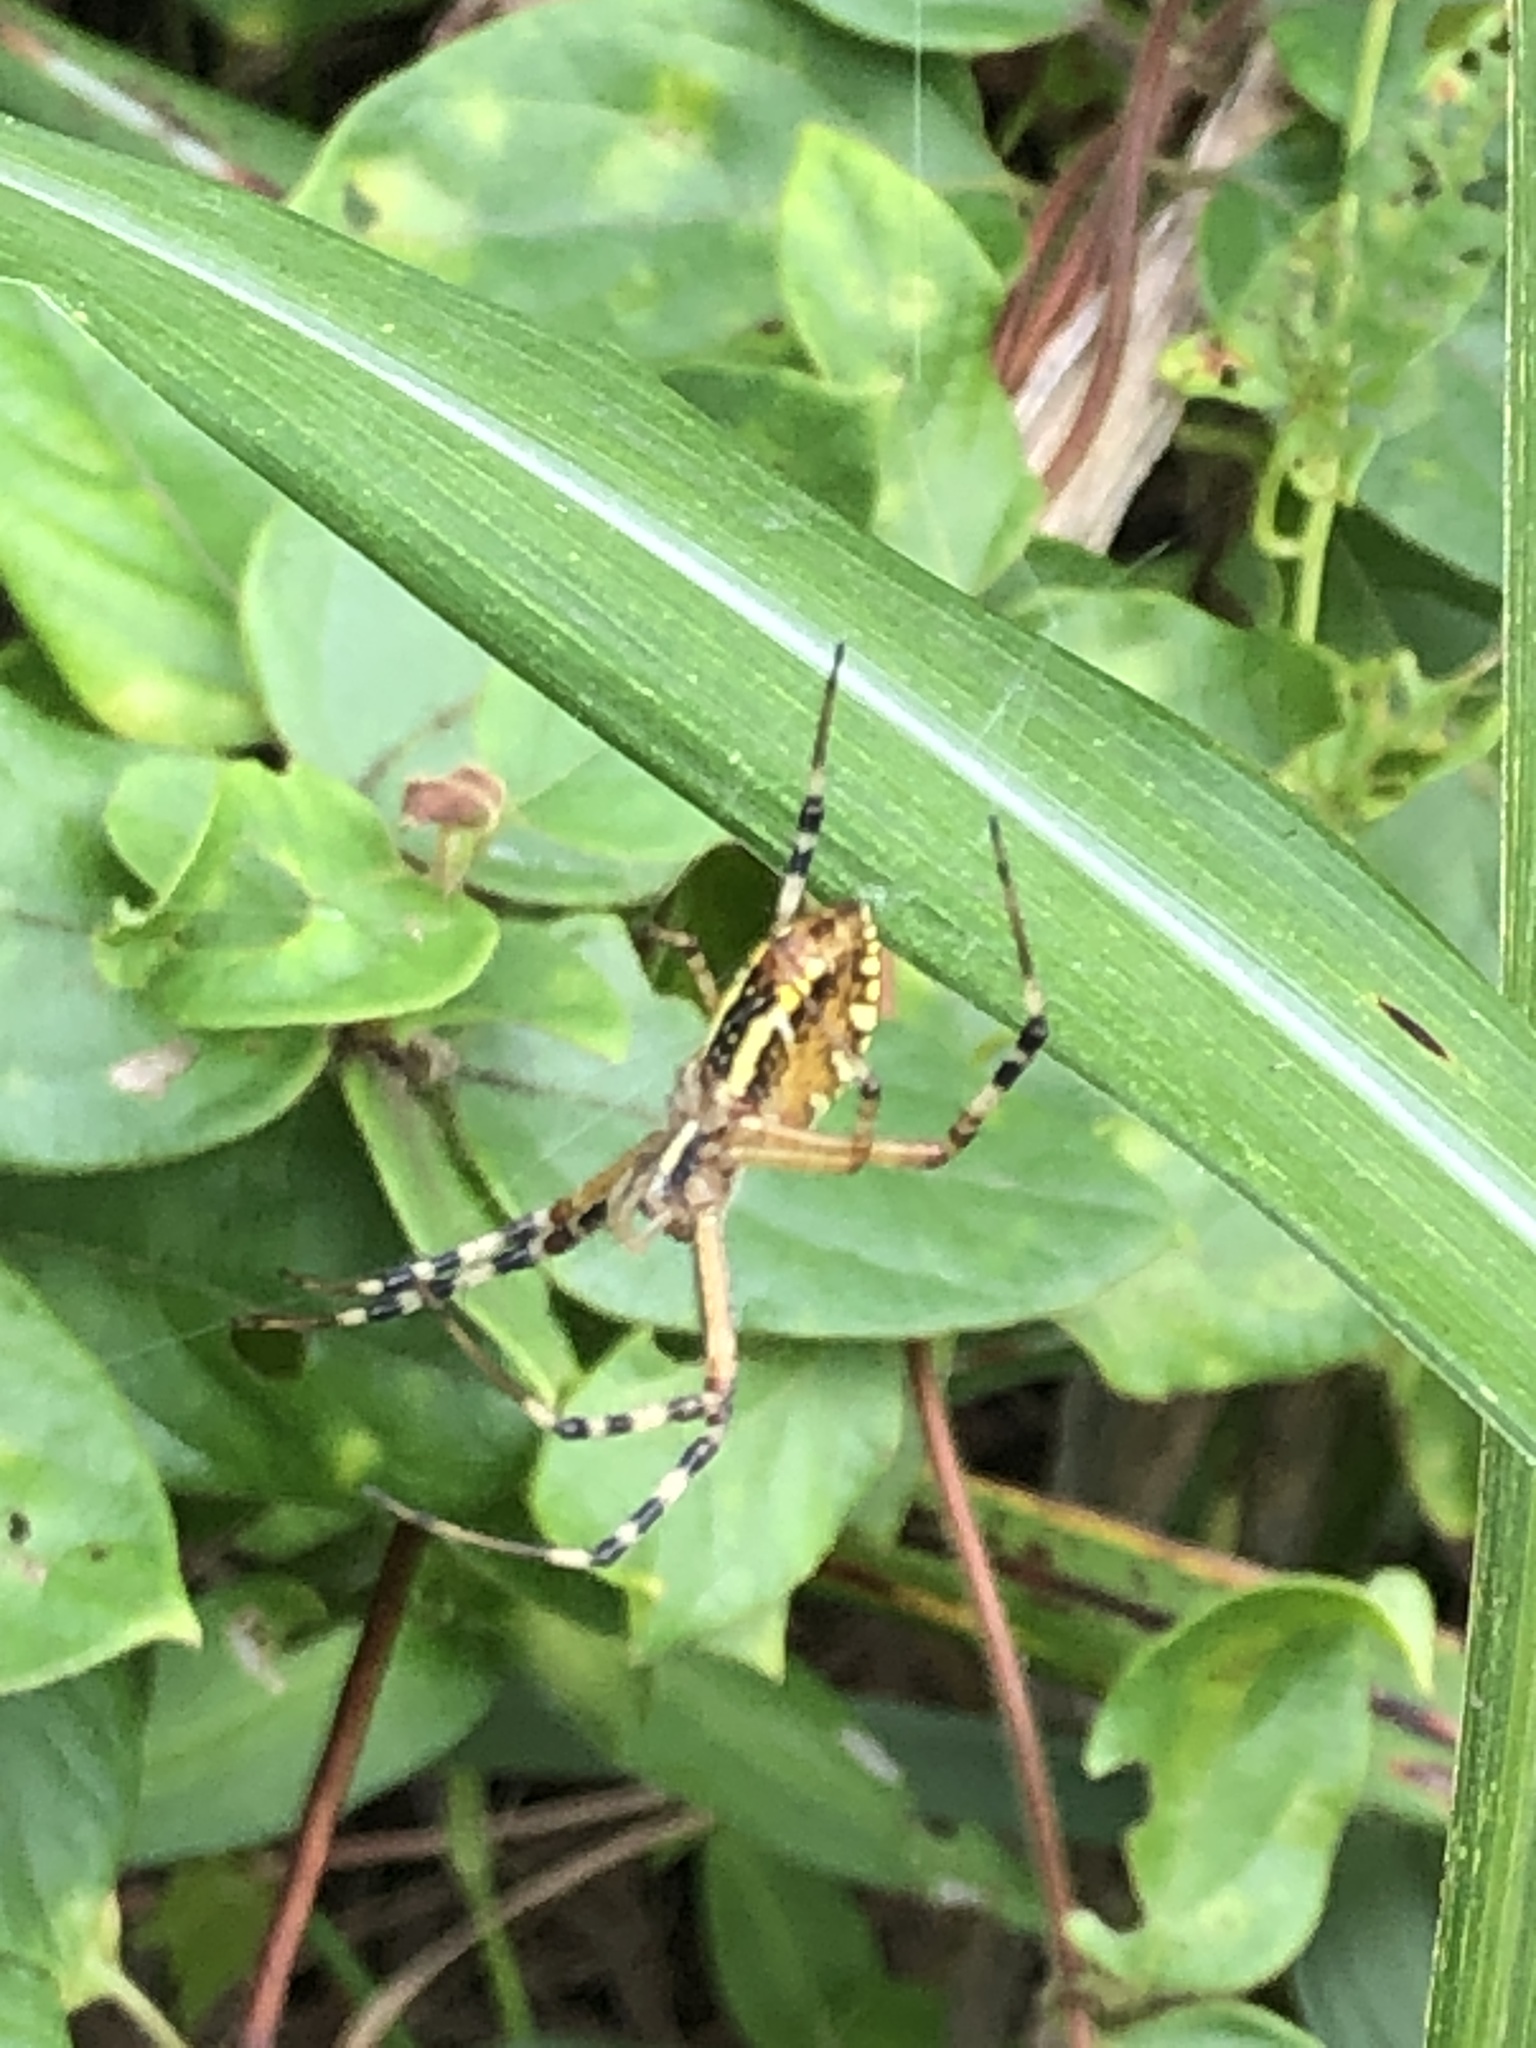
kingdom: Animalia
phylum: Arthropoda
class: Arachnida
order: Araneae
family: Araneidae
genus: Argiope
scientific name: Argiope bruennichi
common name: Wasp spider
